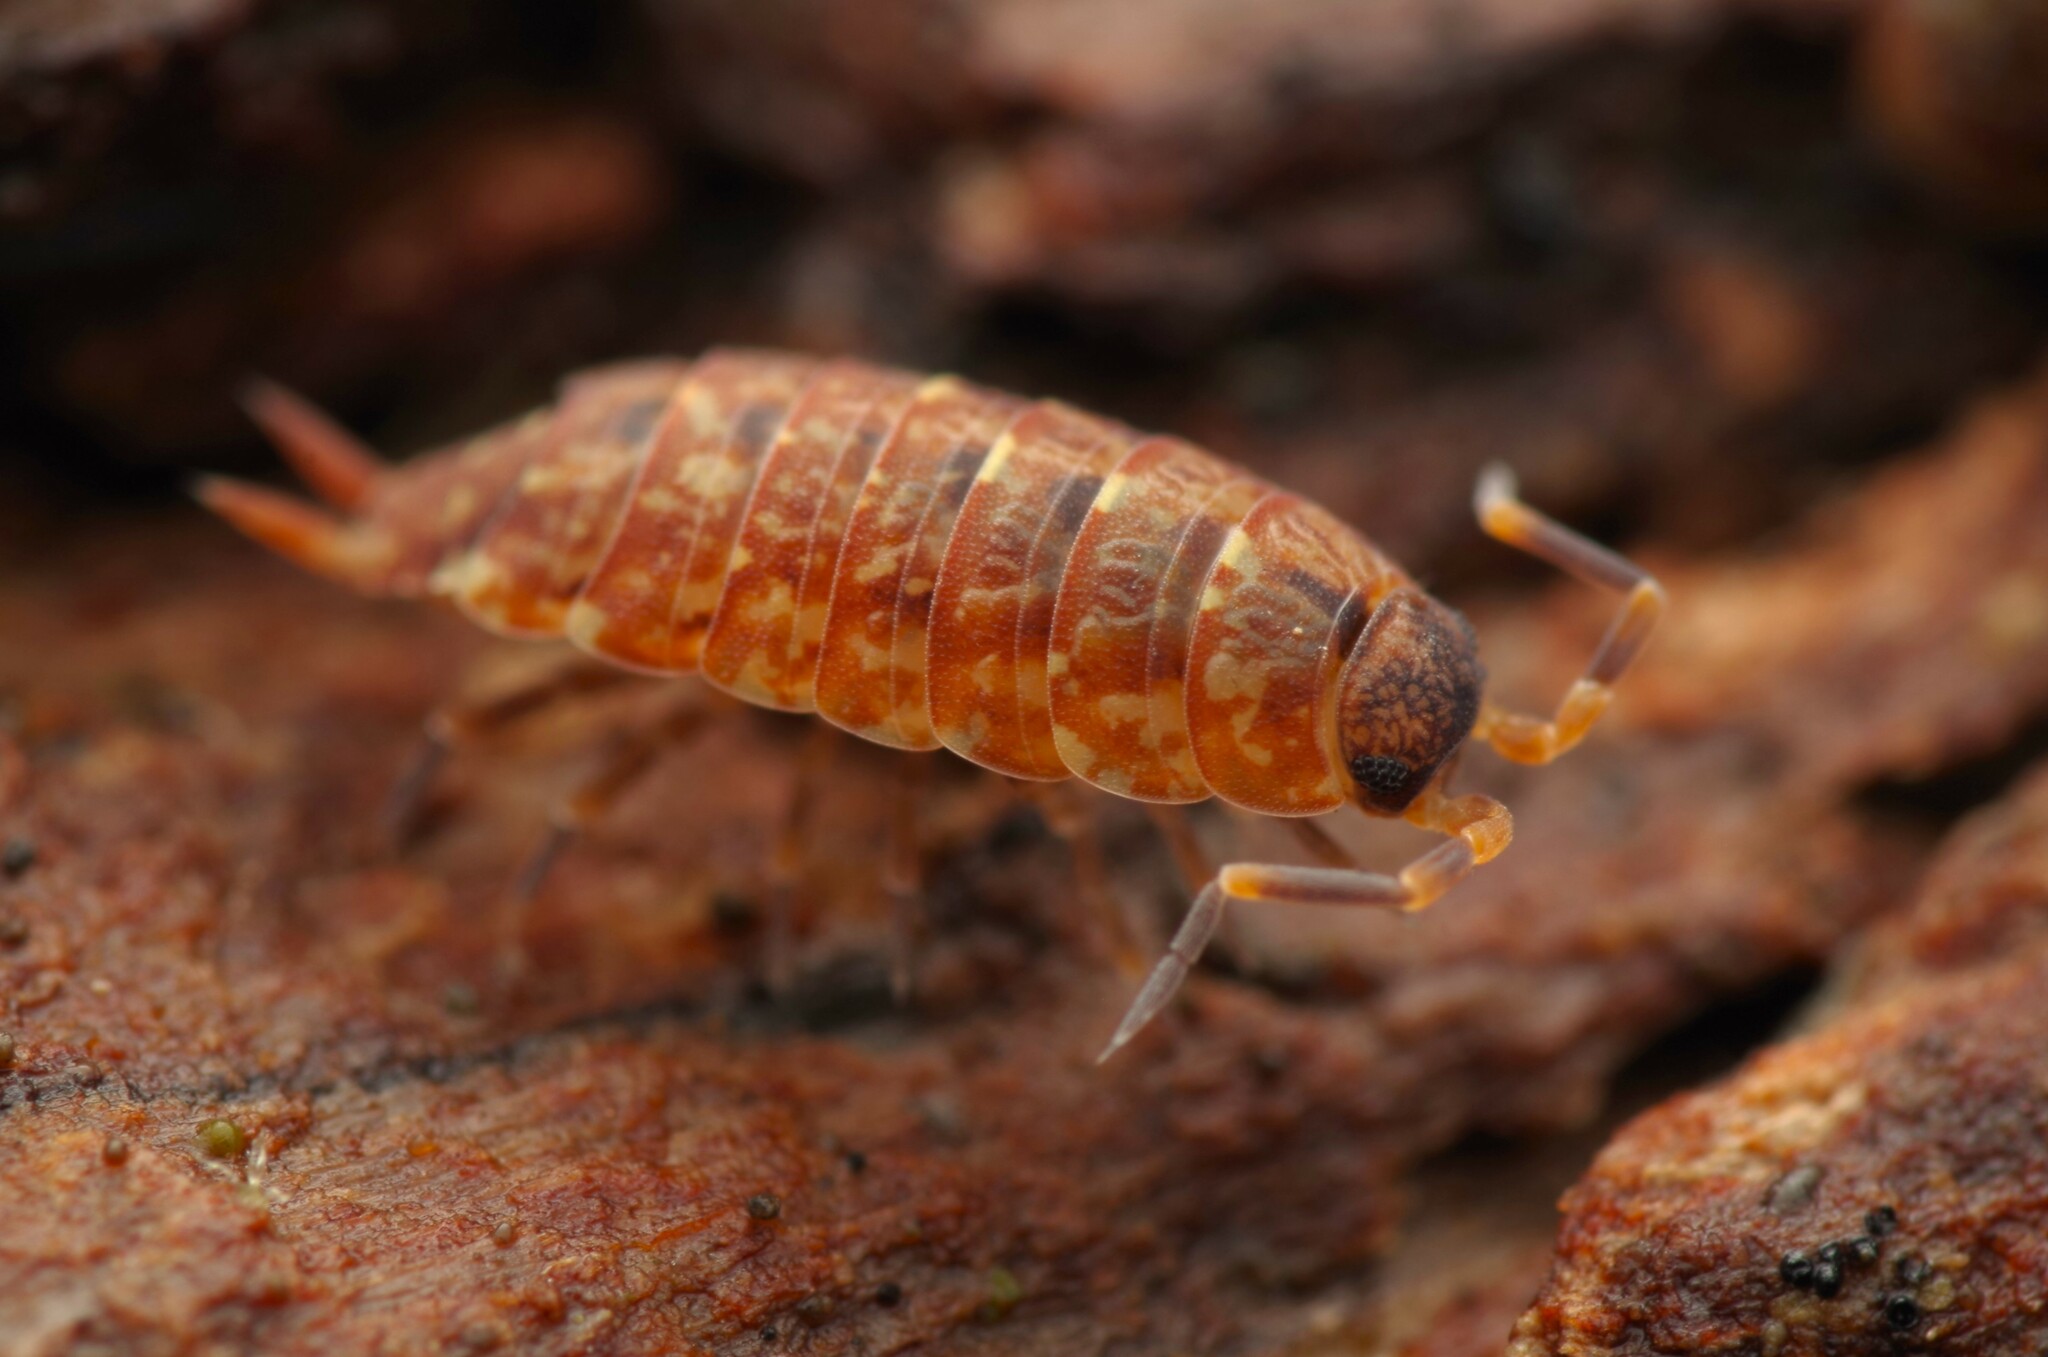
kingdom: Animalia
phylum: Arthropoda
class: Malacostraca
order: Isopoda
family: Porcellionidae
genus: Porcellionides
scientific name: Porcellionides cingendus
